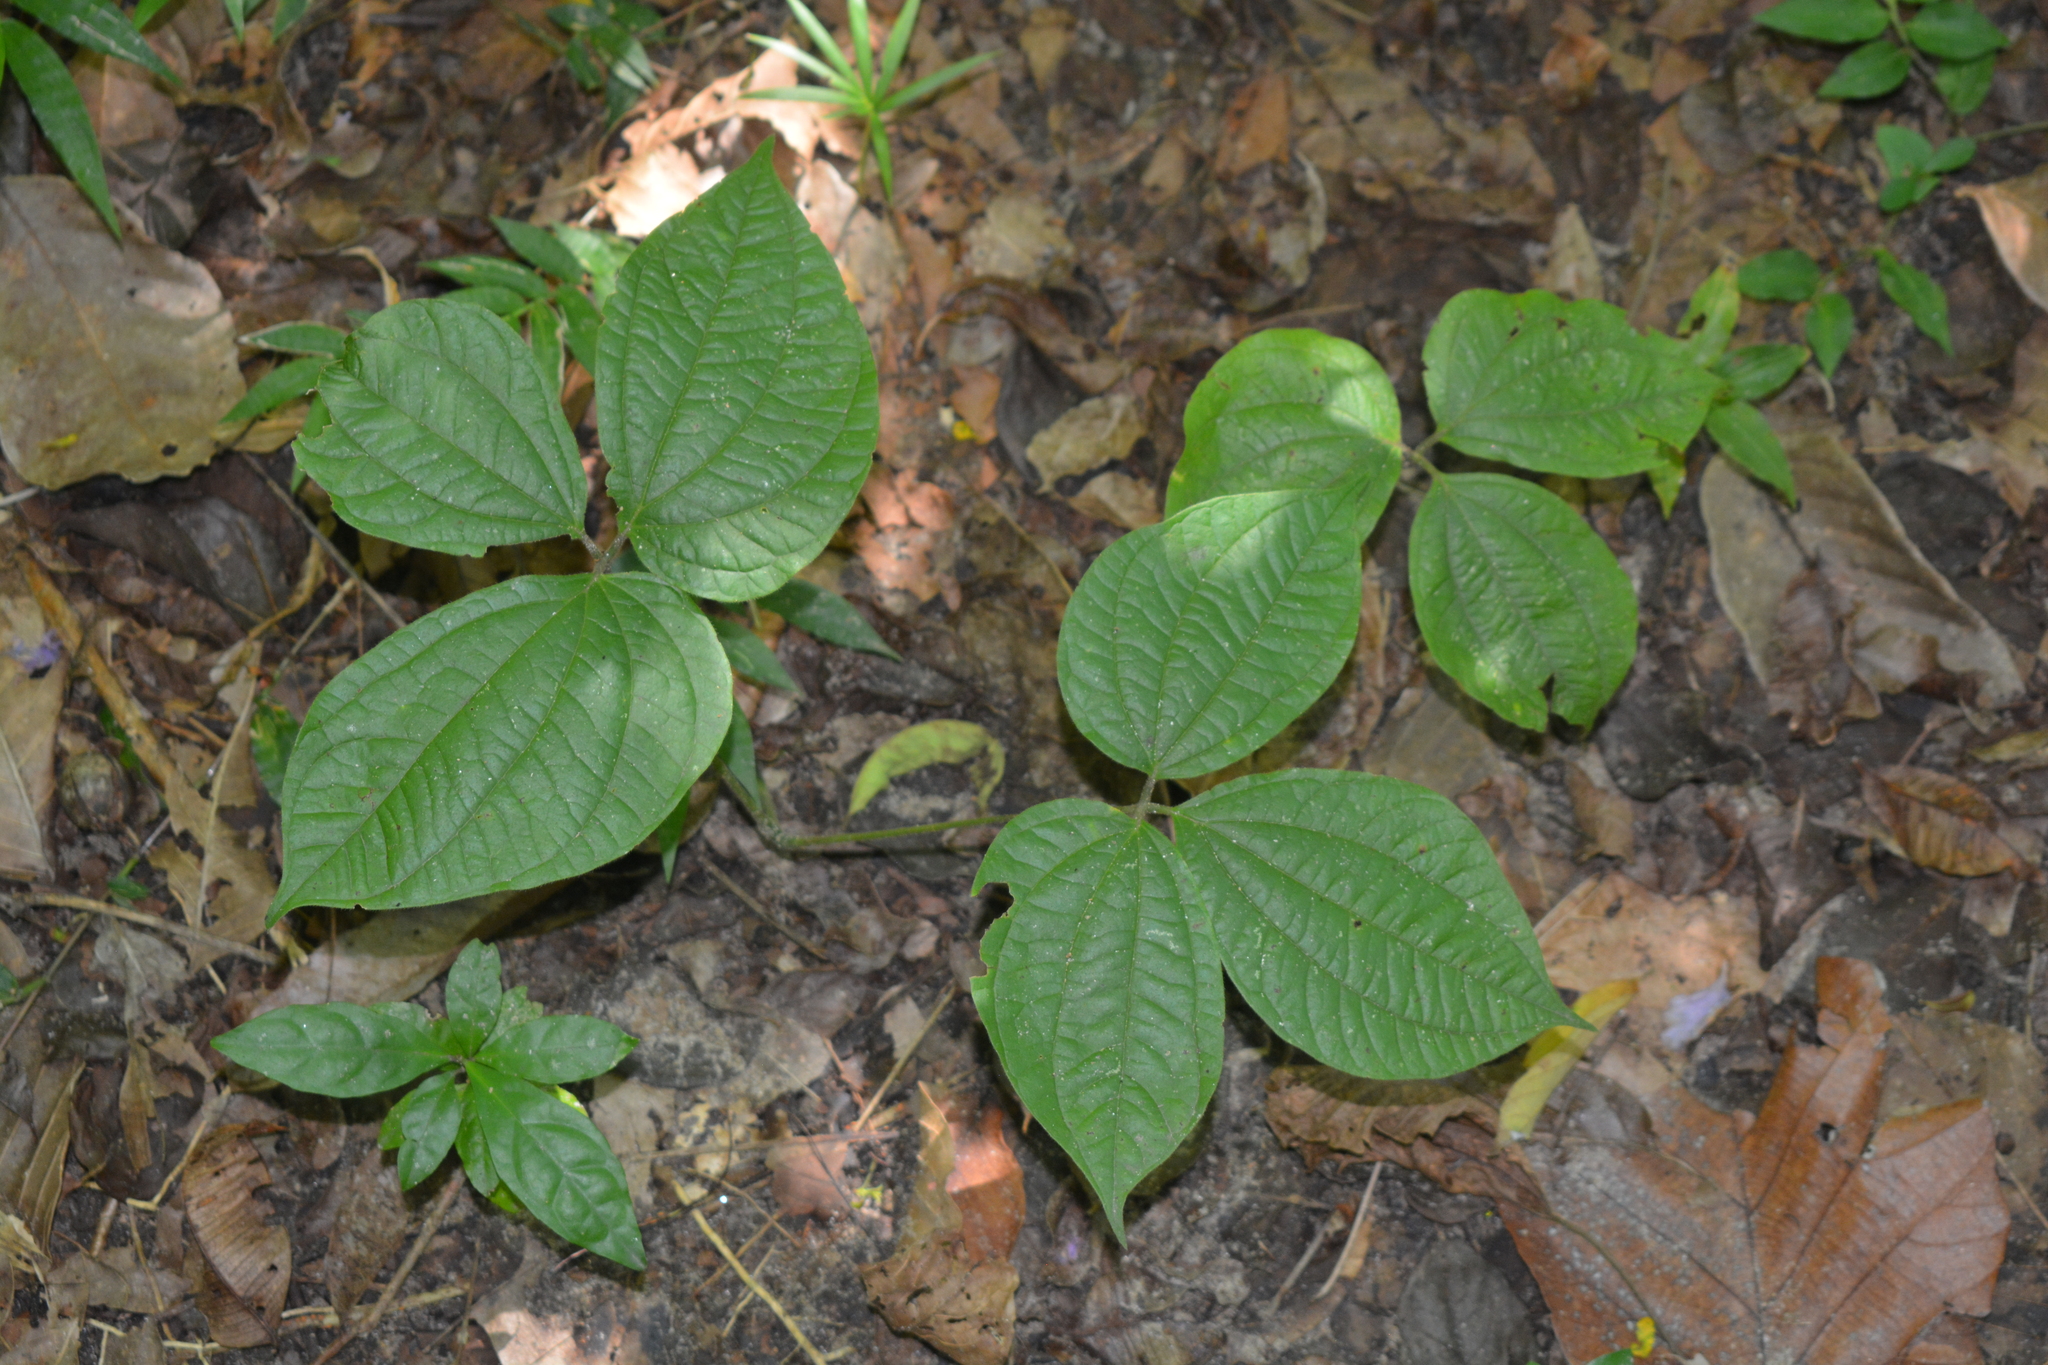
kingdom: Plantae
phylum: Tracheophyta
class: Liliopsida
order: Dioscoreales
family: Dioscoreaceae
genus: Dioscorea
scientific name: Dioscorea hispida
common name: Asiatic bitter yam
